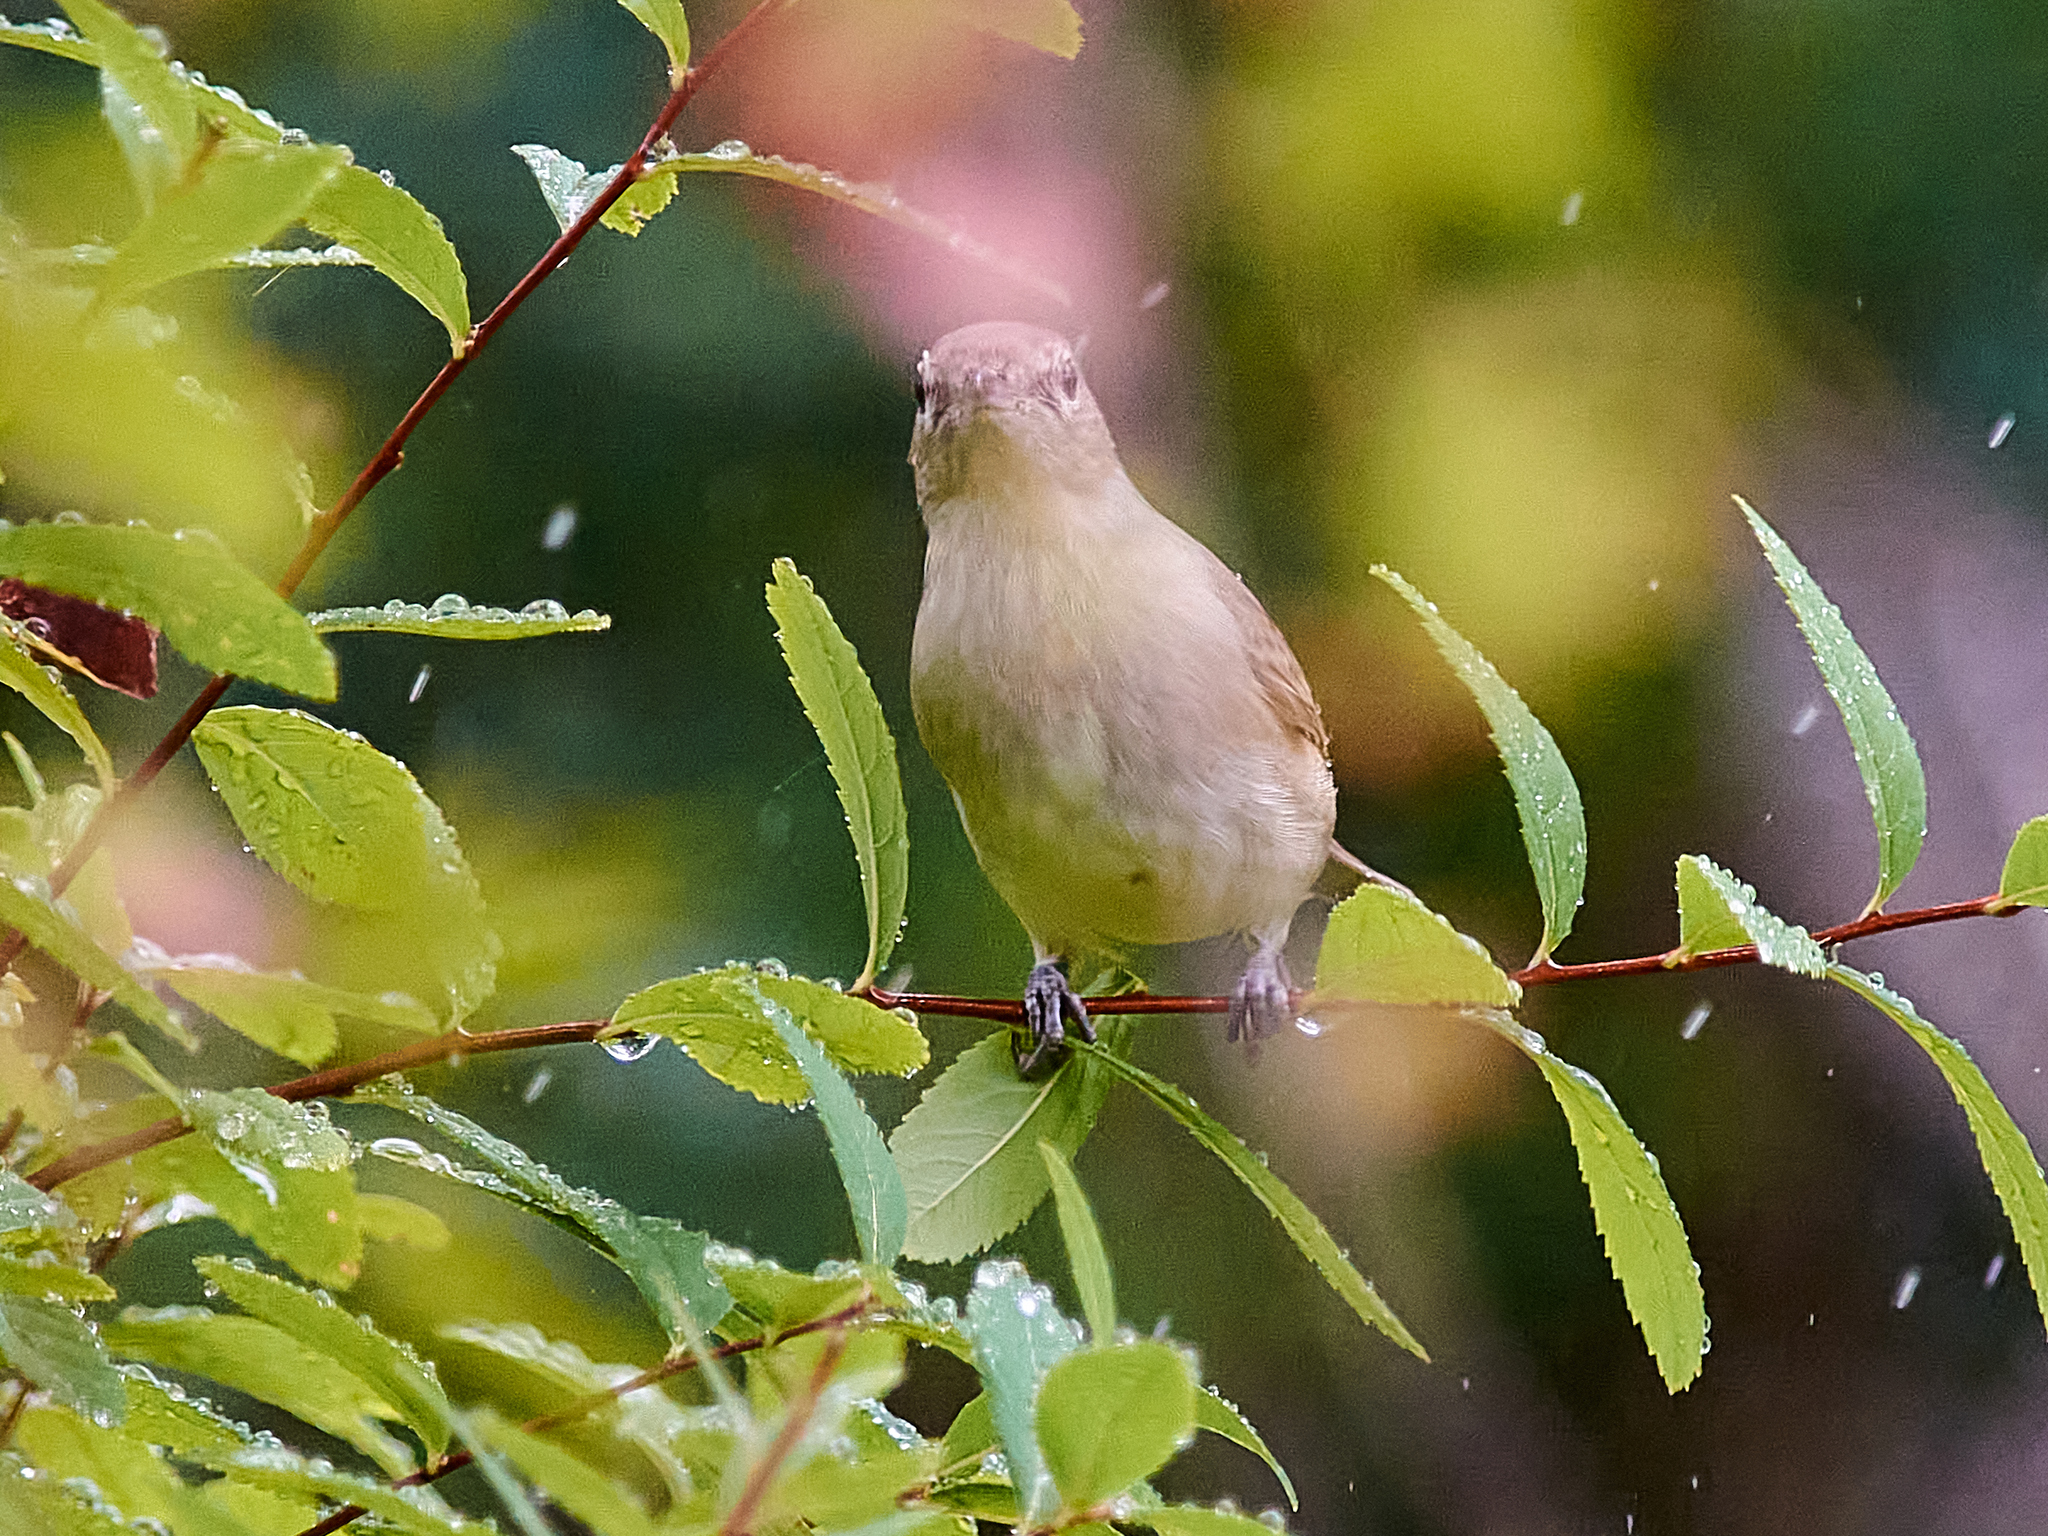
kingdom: Animalia
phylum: Chordata
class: Aves
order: Passeriformes
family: Sylviidae
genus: Sylvia
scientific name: Sylvia borin
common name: Garden warbler
